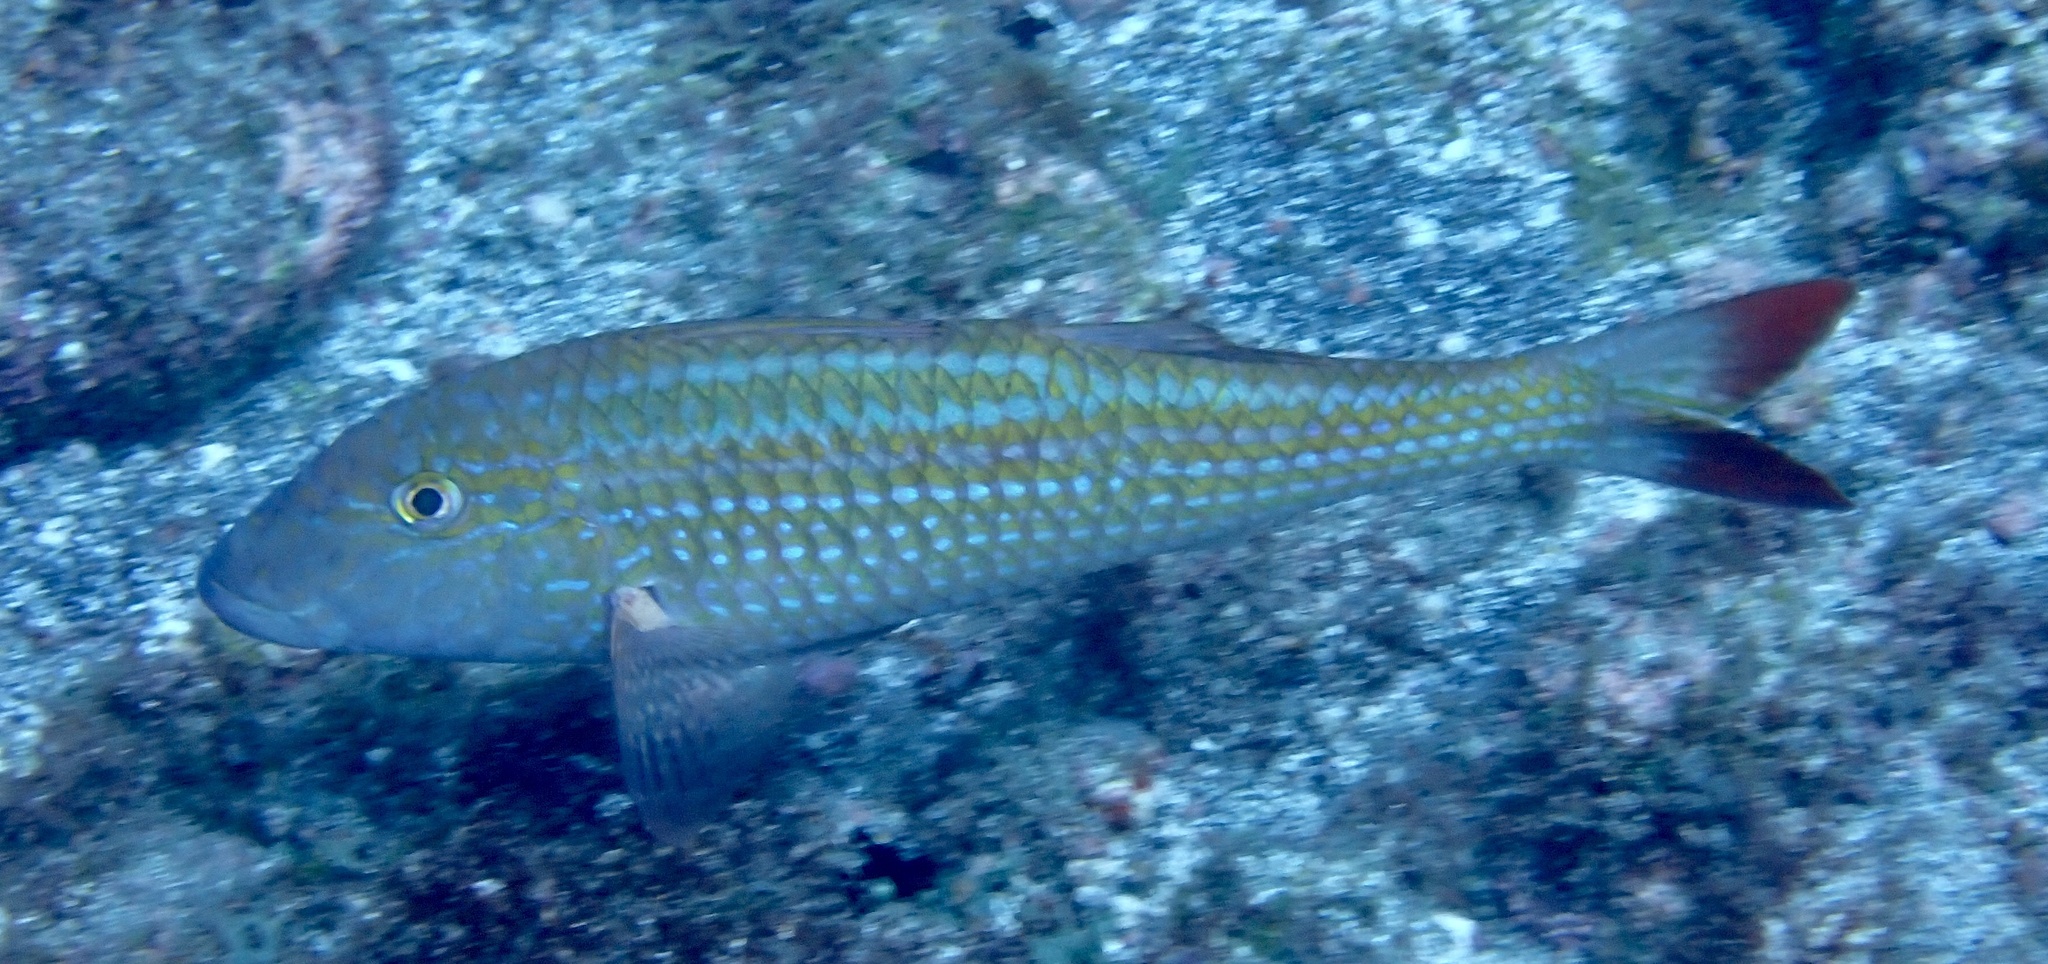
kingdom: Animalia
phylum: Chordata
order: Perciformes
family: Mullidae
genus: Pseudupeneus
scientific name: Pseudupeneus prayensis
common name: West african goatfish
